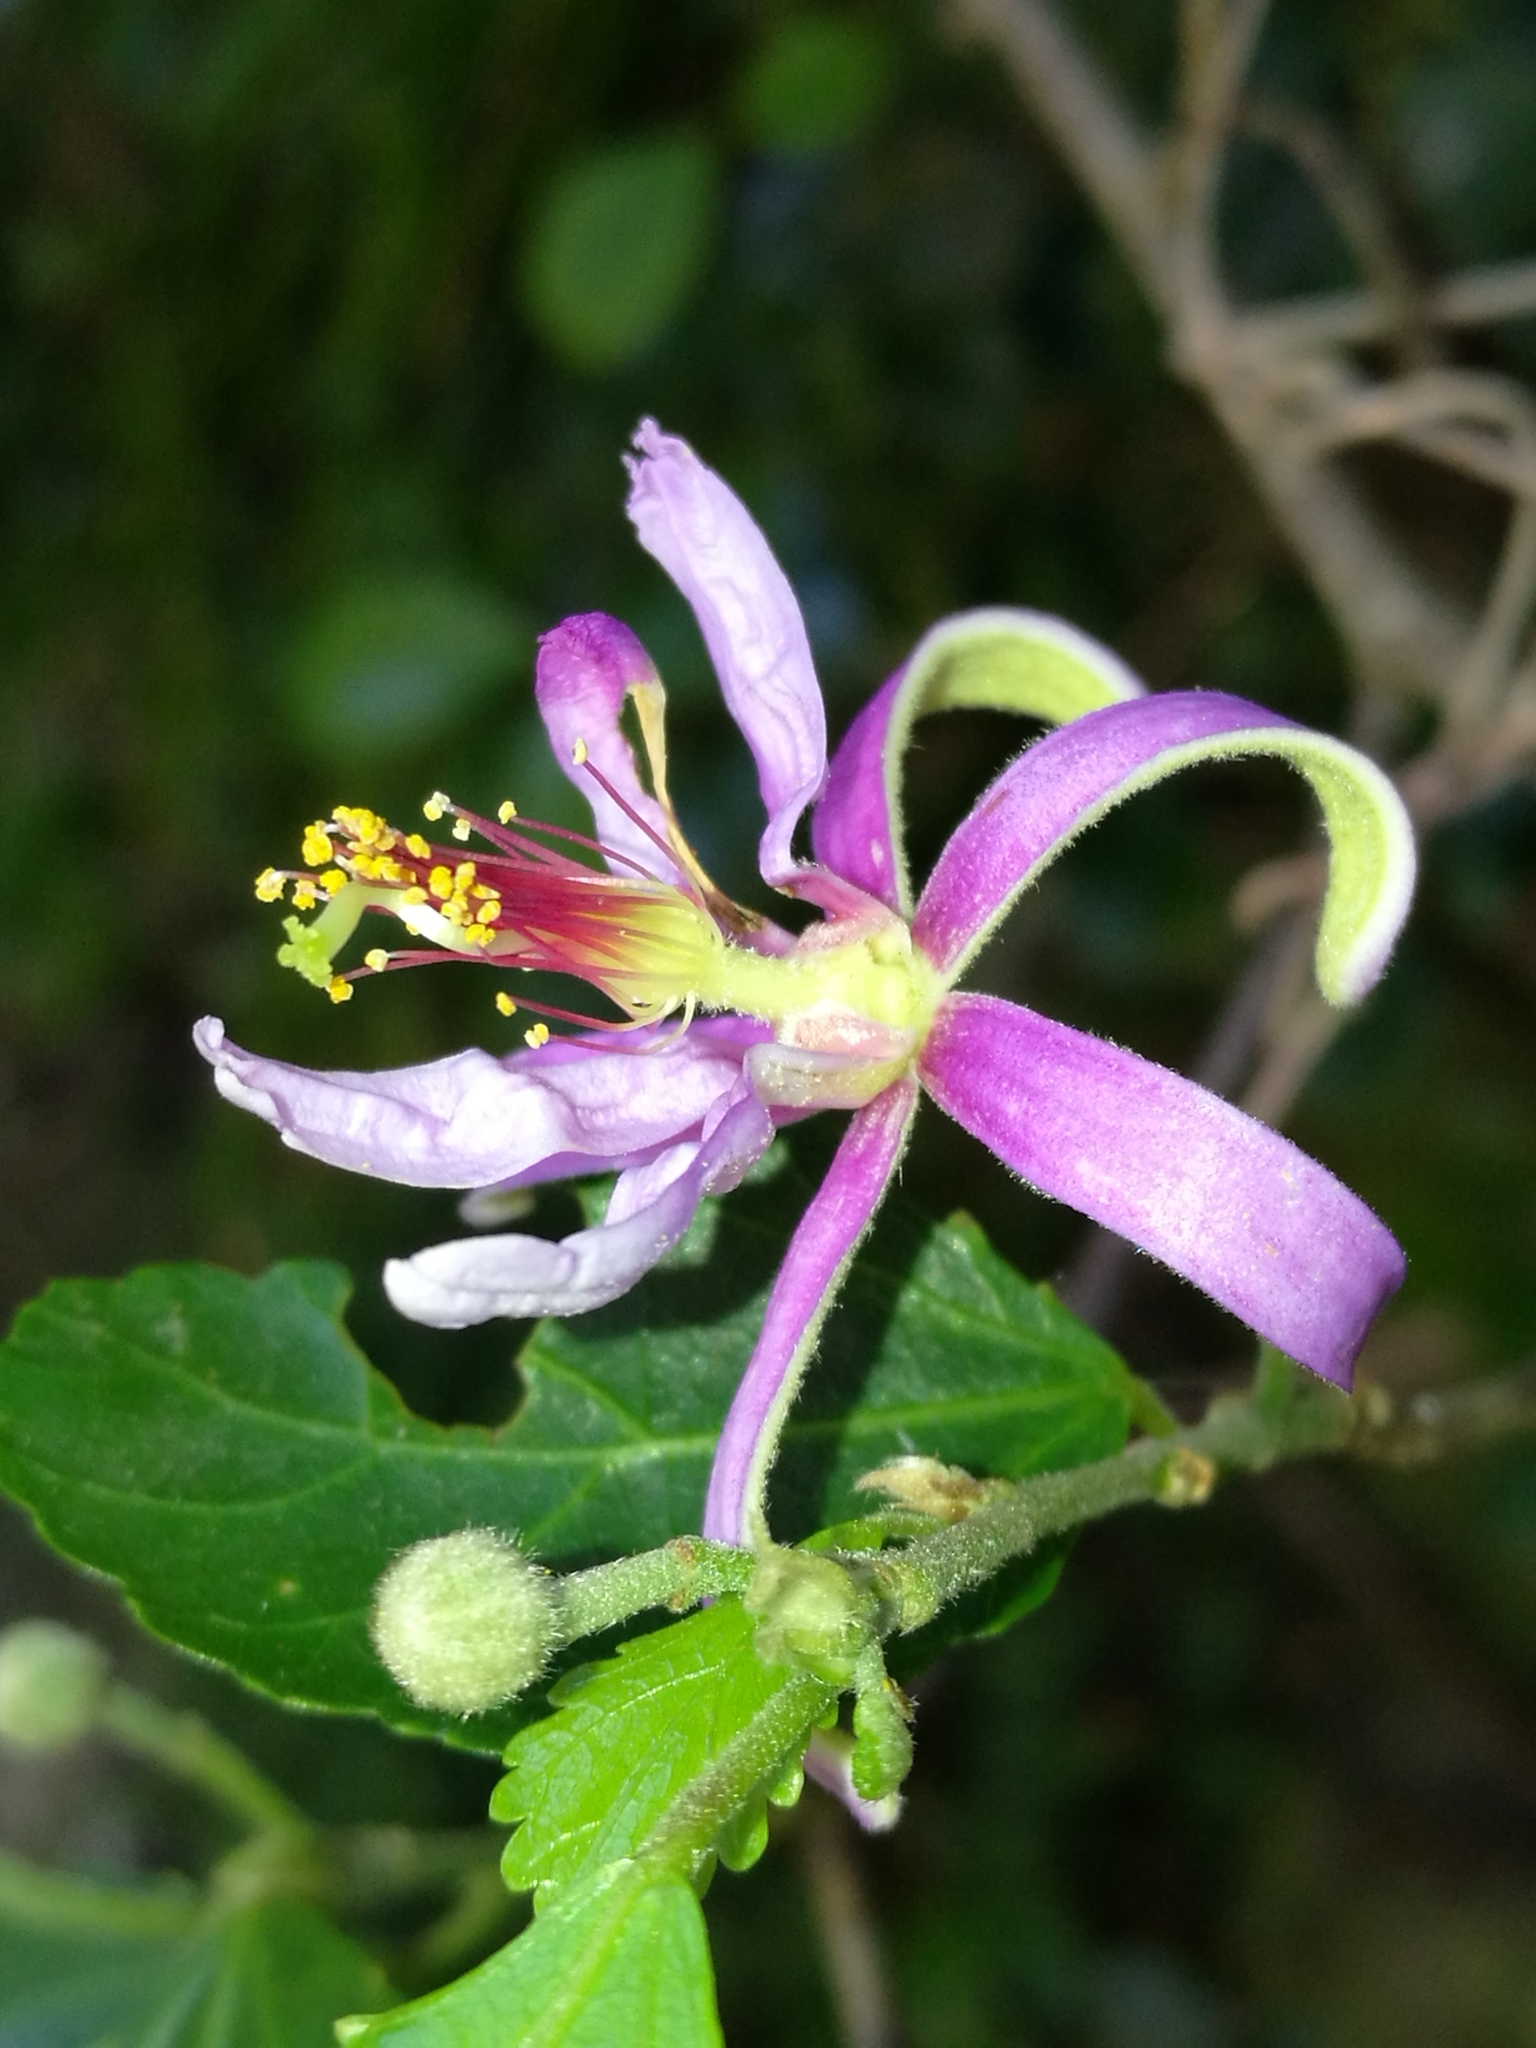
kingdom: Plantae
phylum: Tracheophyta
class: Magnoliopsida
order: Malvales
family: Malvaceae
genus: Grewia
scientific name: Grewia occidentalis
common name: Crossberry
